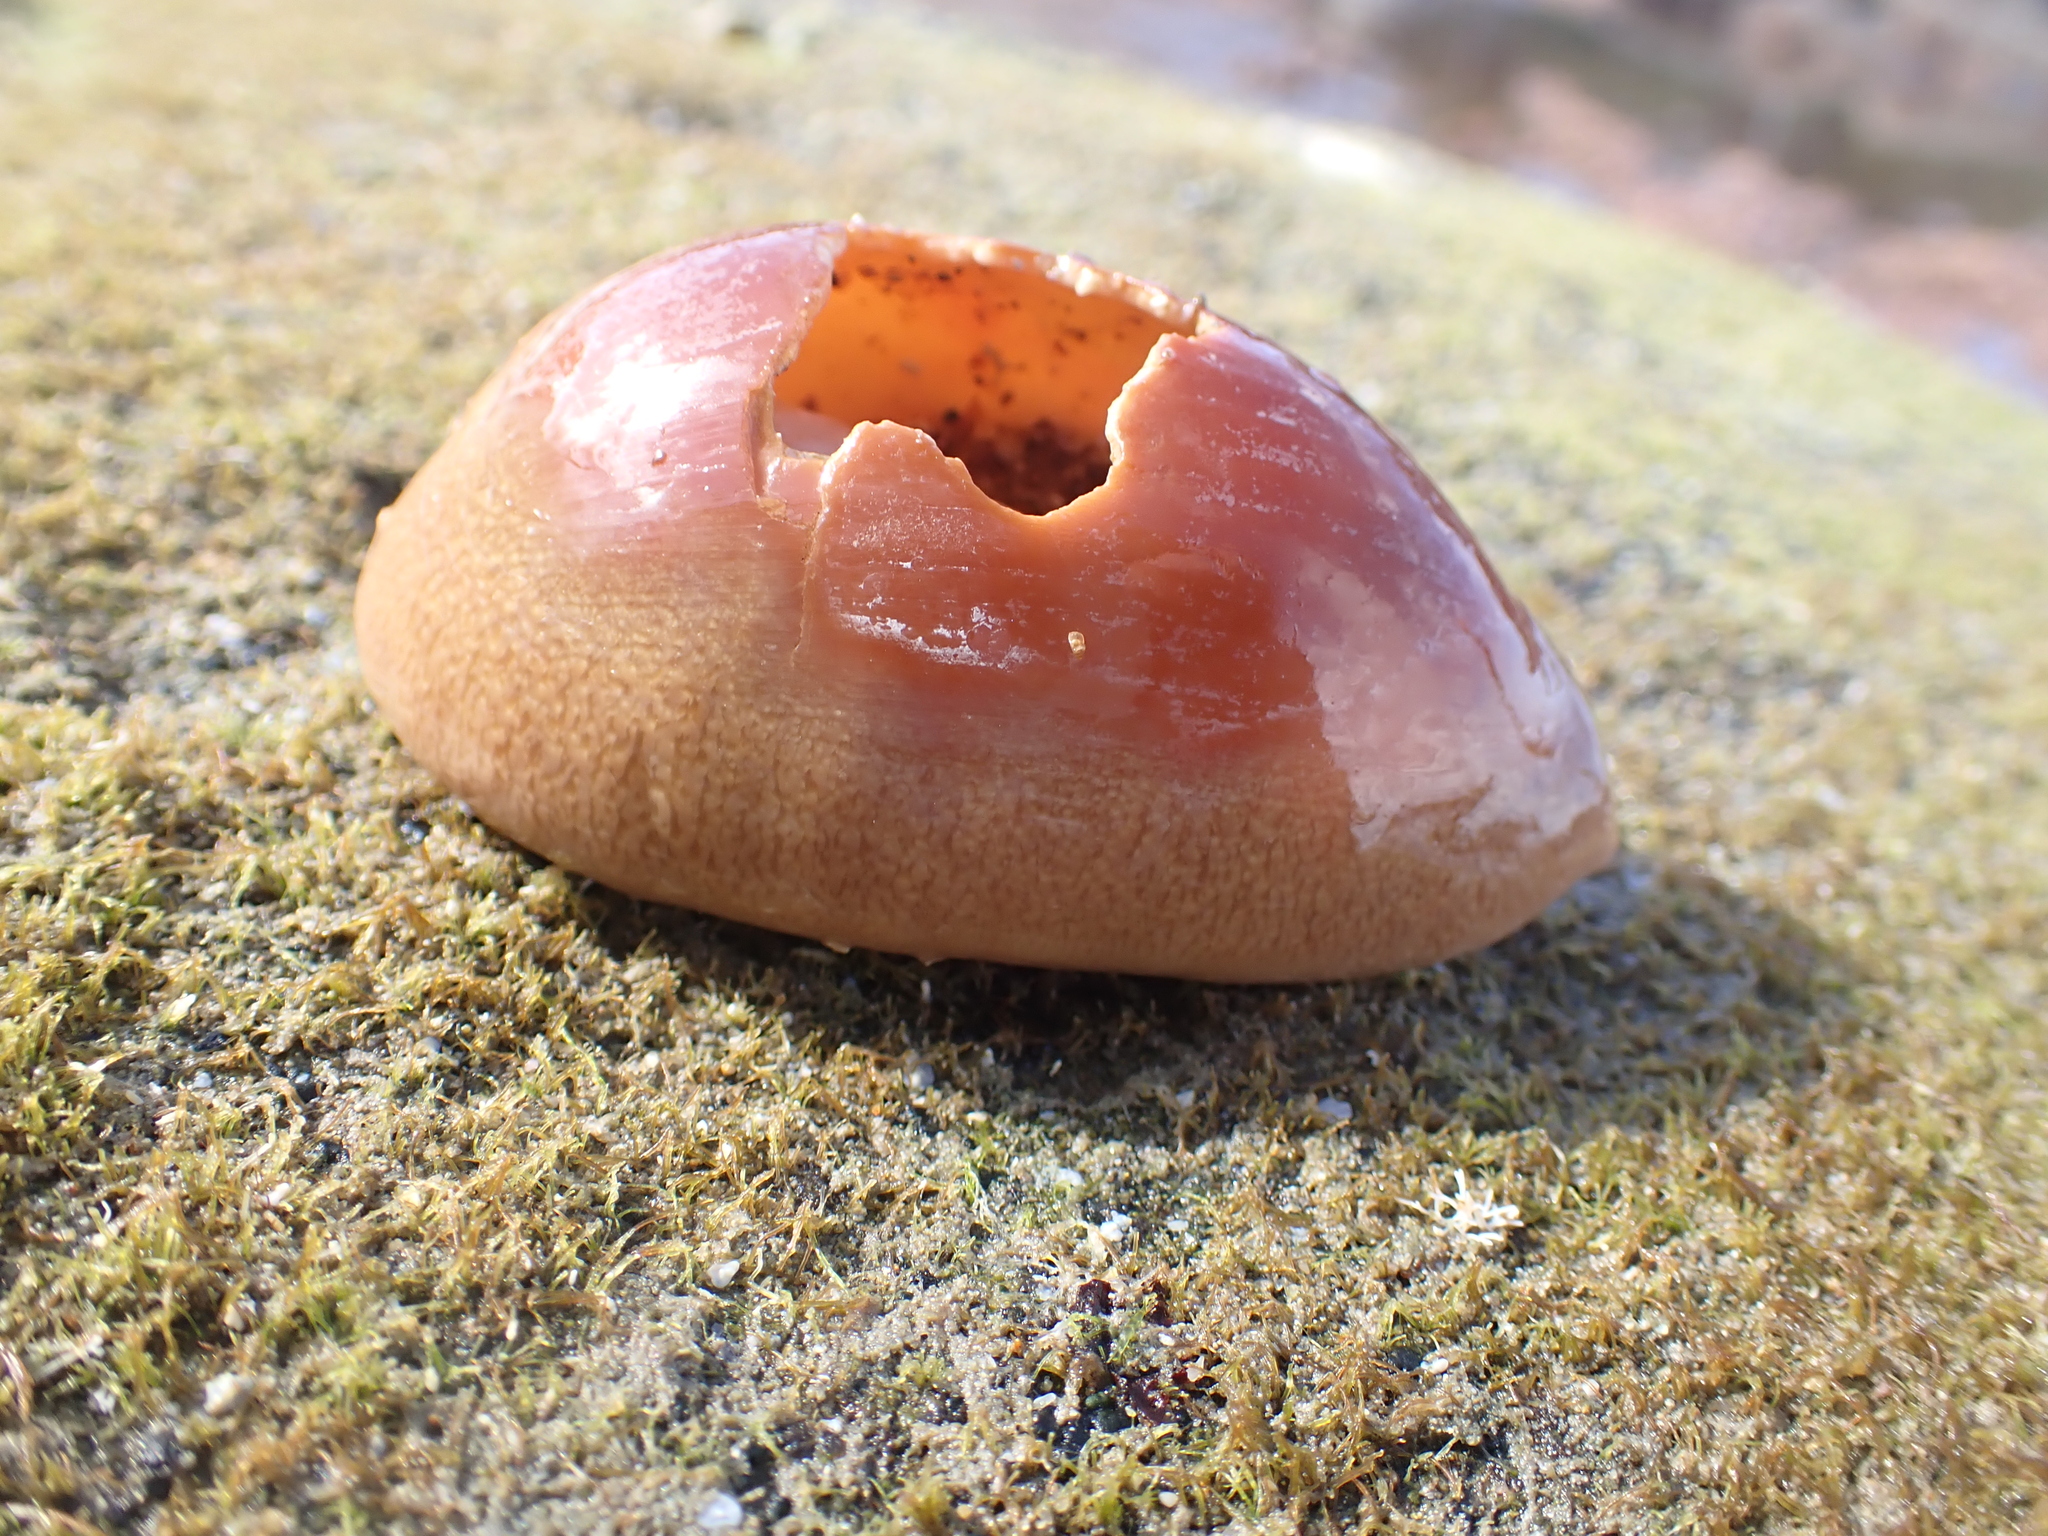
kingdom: Animalia
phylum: Mollusca
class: Gastropoda
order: Littorinimorpha
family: Cypraeidae
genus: Lyncina
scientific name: Lyncina carneola
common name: Purple-mouthed cowry
